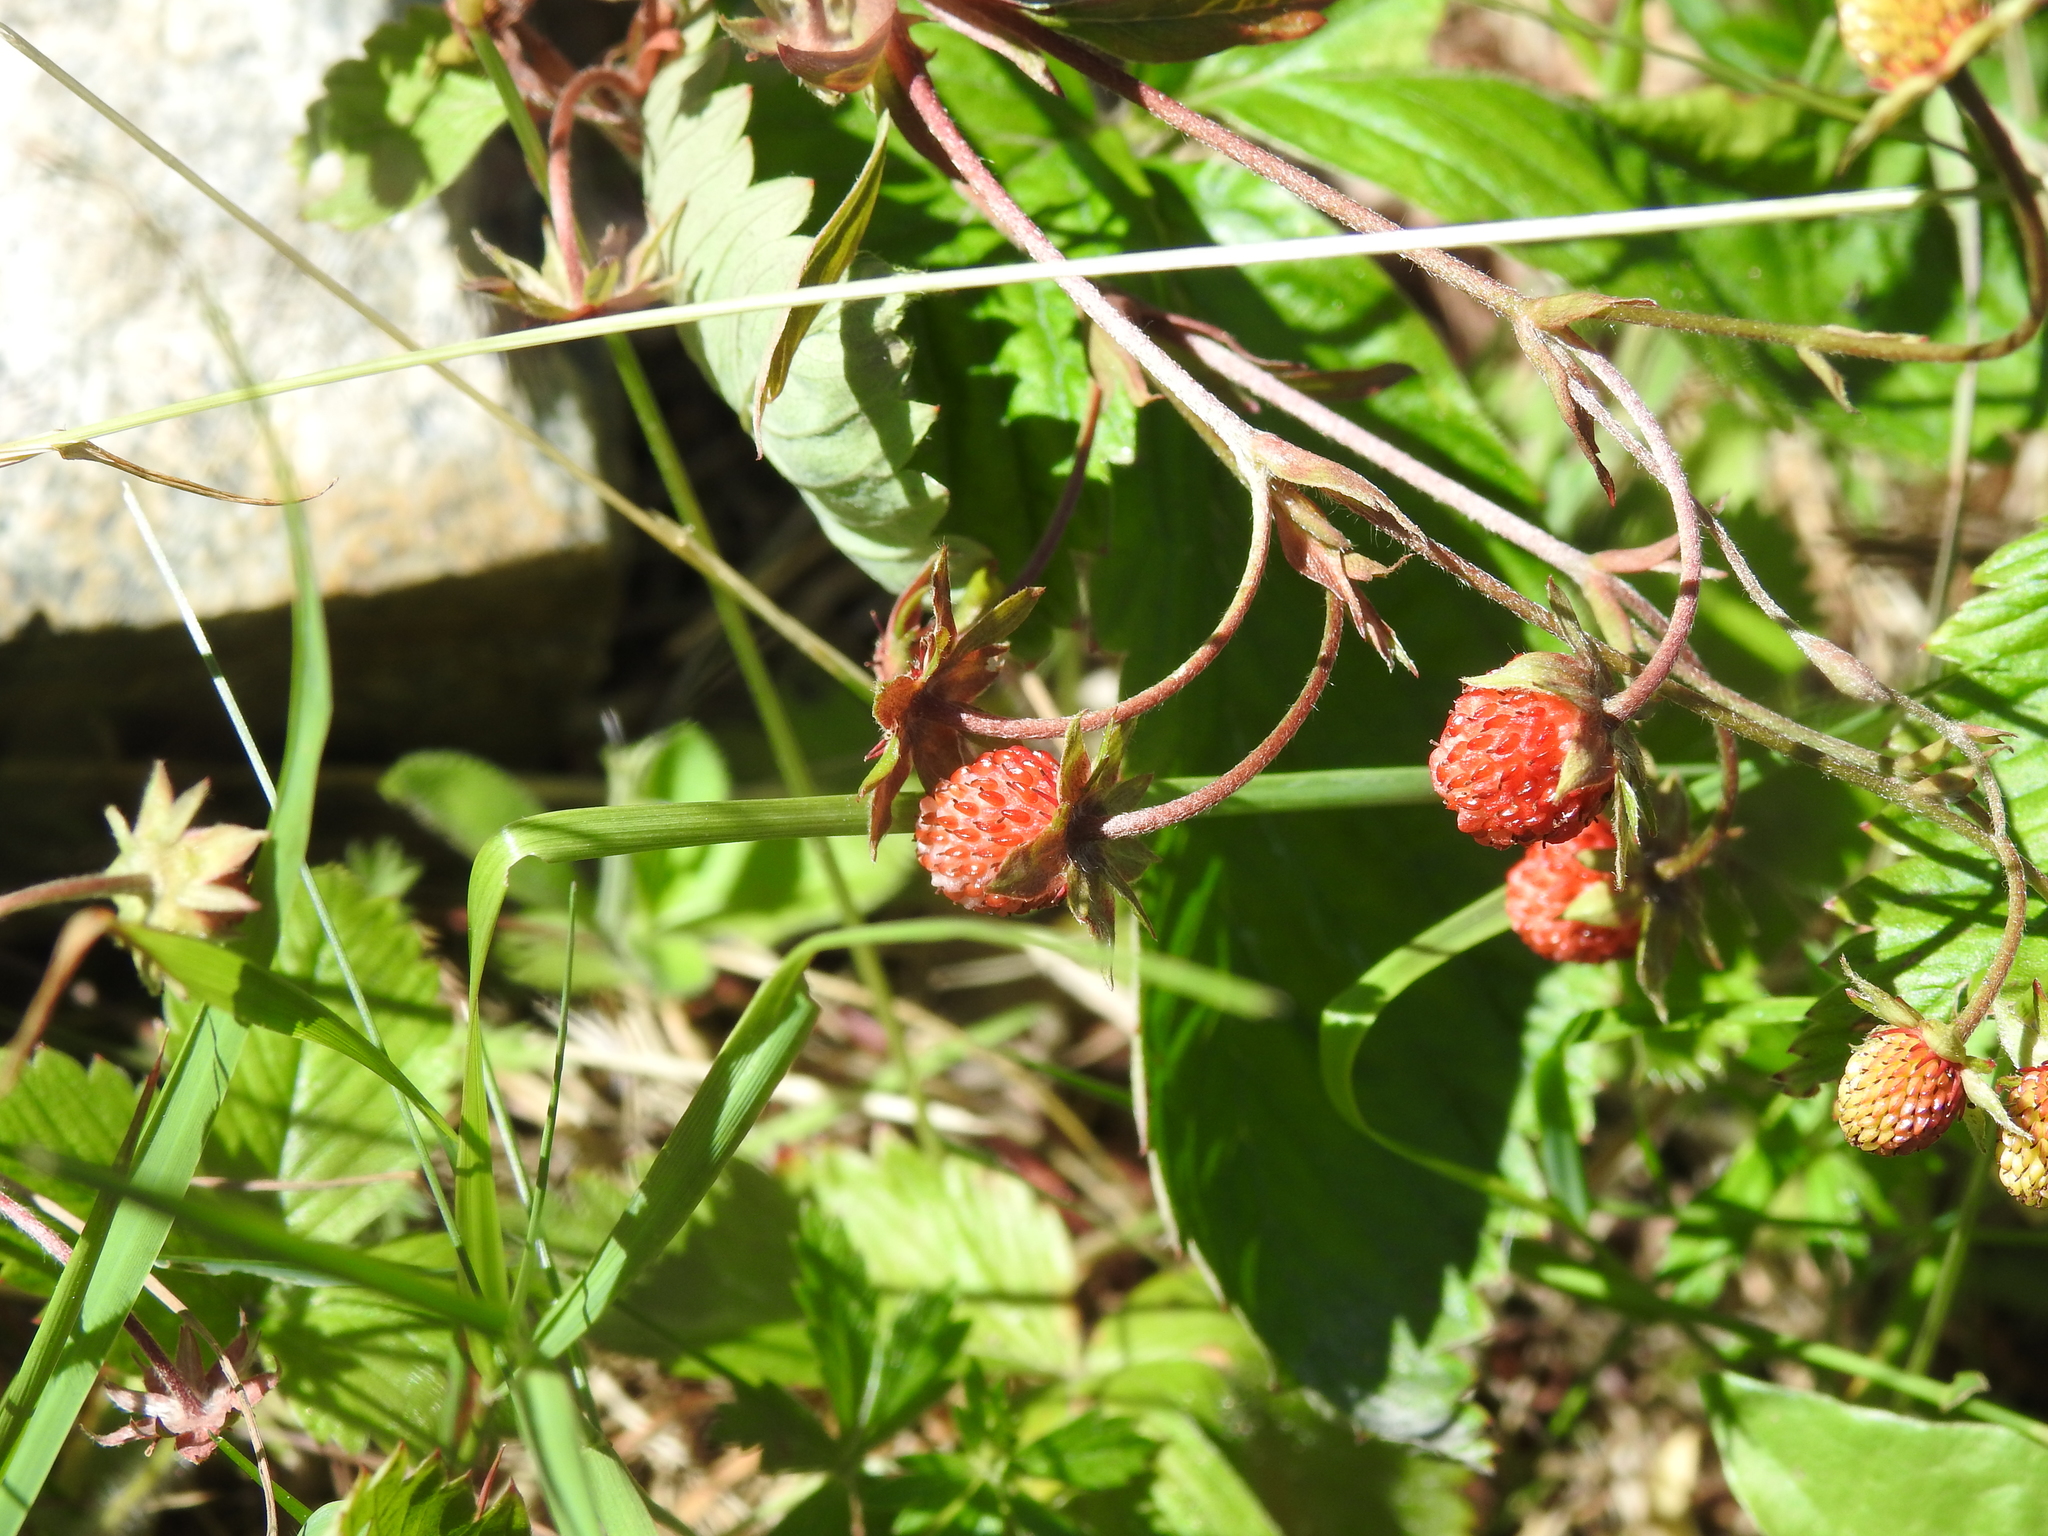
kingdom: Plantae
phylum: Tracheophyta
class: Magnoliopsida
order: Rosales
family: Rosaceae
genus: Fragaria
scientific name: Fragaria vesca
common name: Wild strawberry
